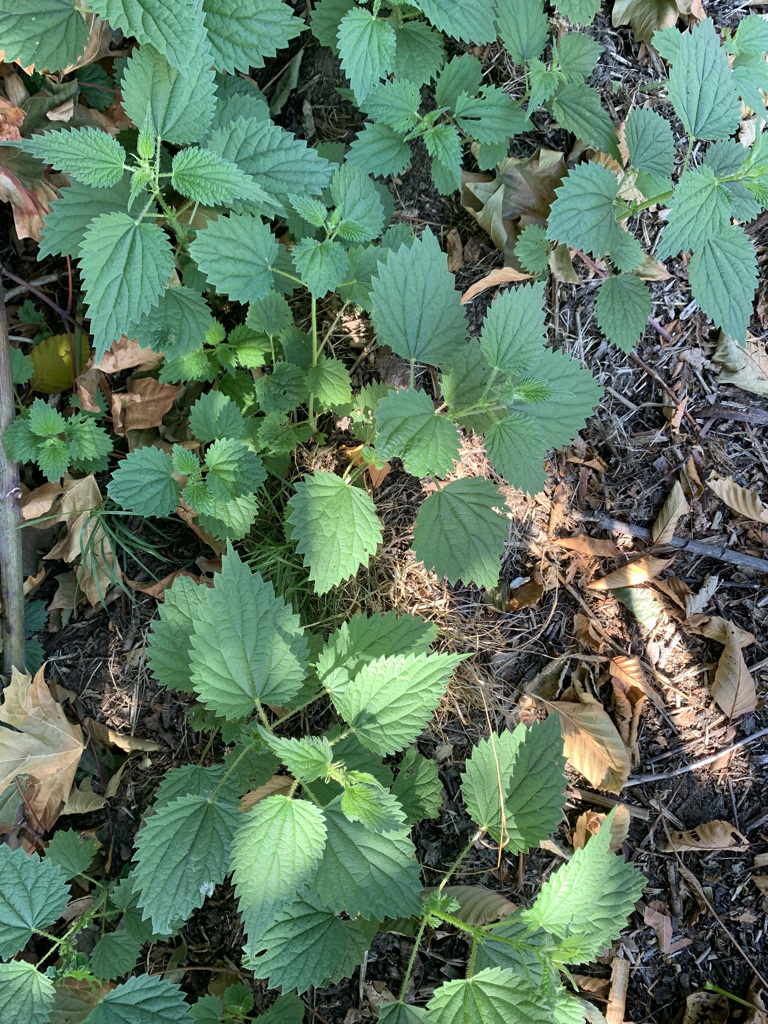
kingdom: Plantae
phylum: Tracheophyta
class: Magnoliopsida
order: Rosales
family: Urticaceae
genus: Urtica
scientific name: Urtica gracilis
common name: Slender stinging nettle
